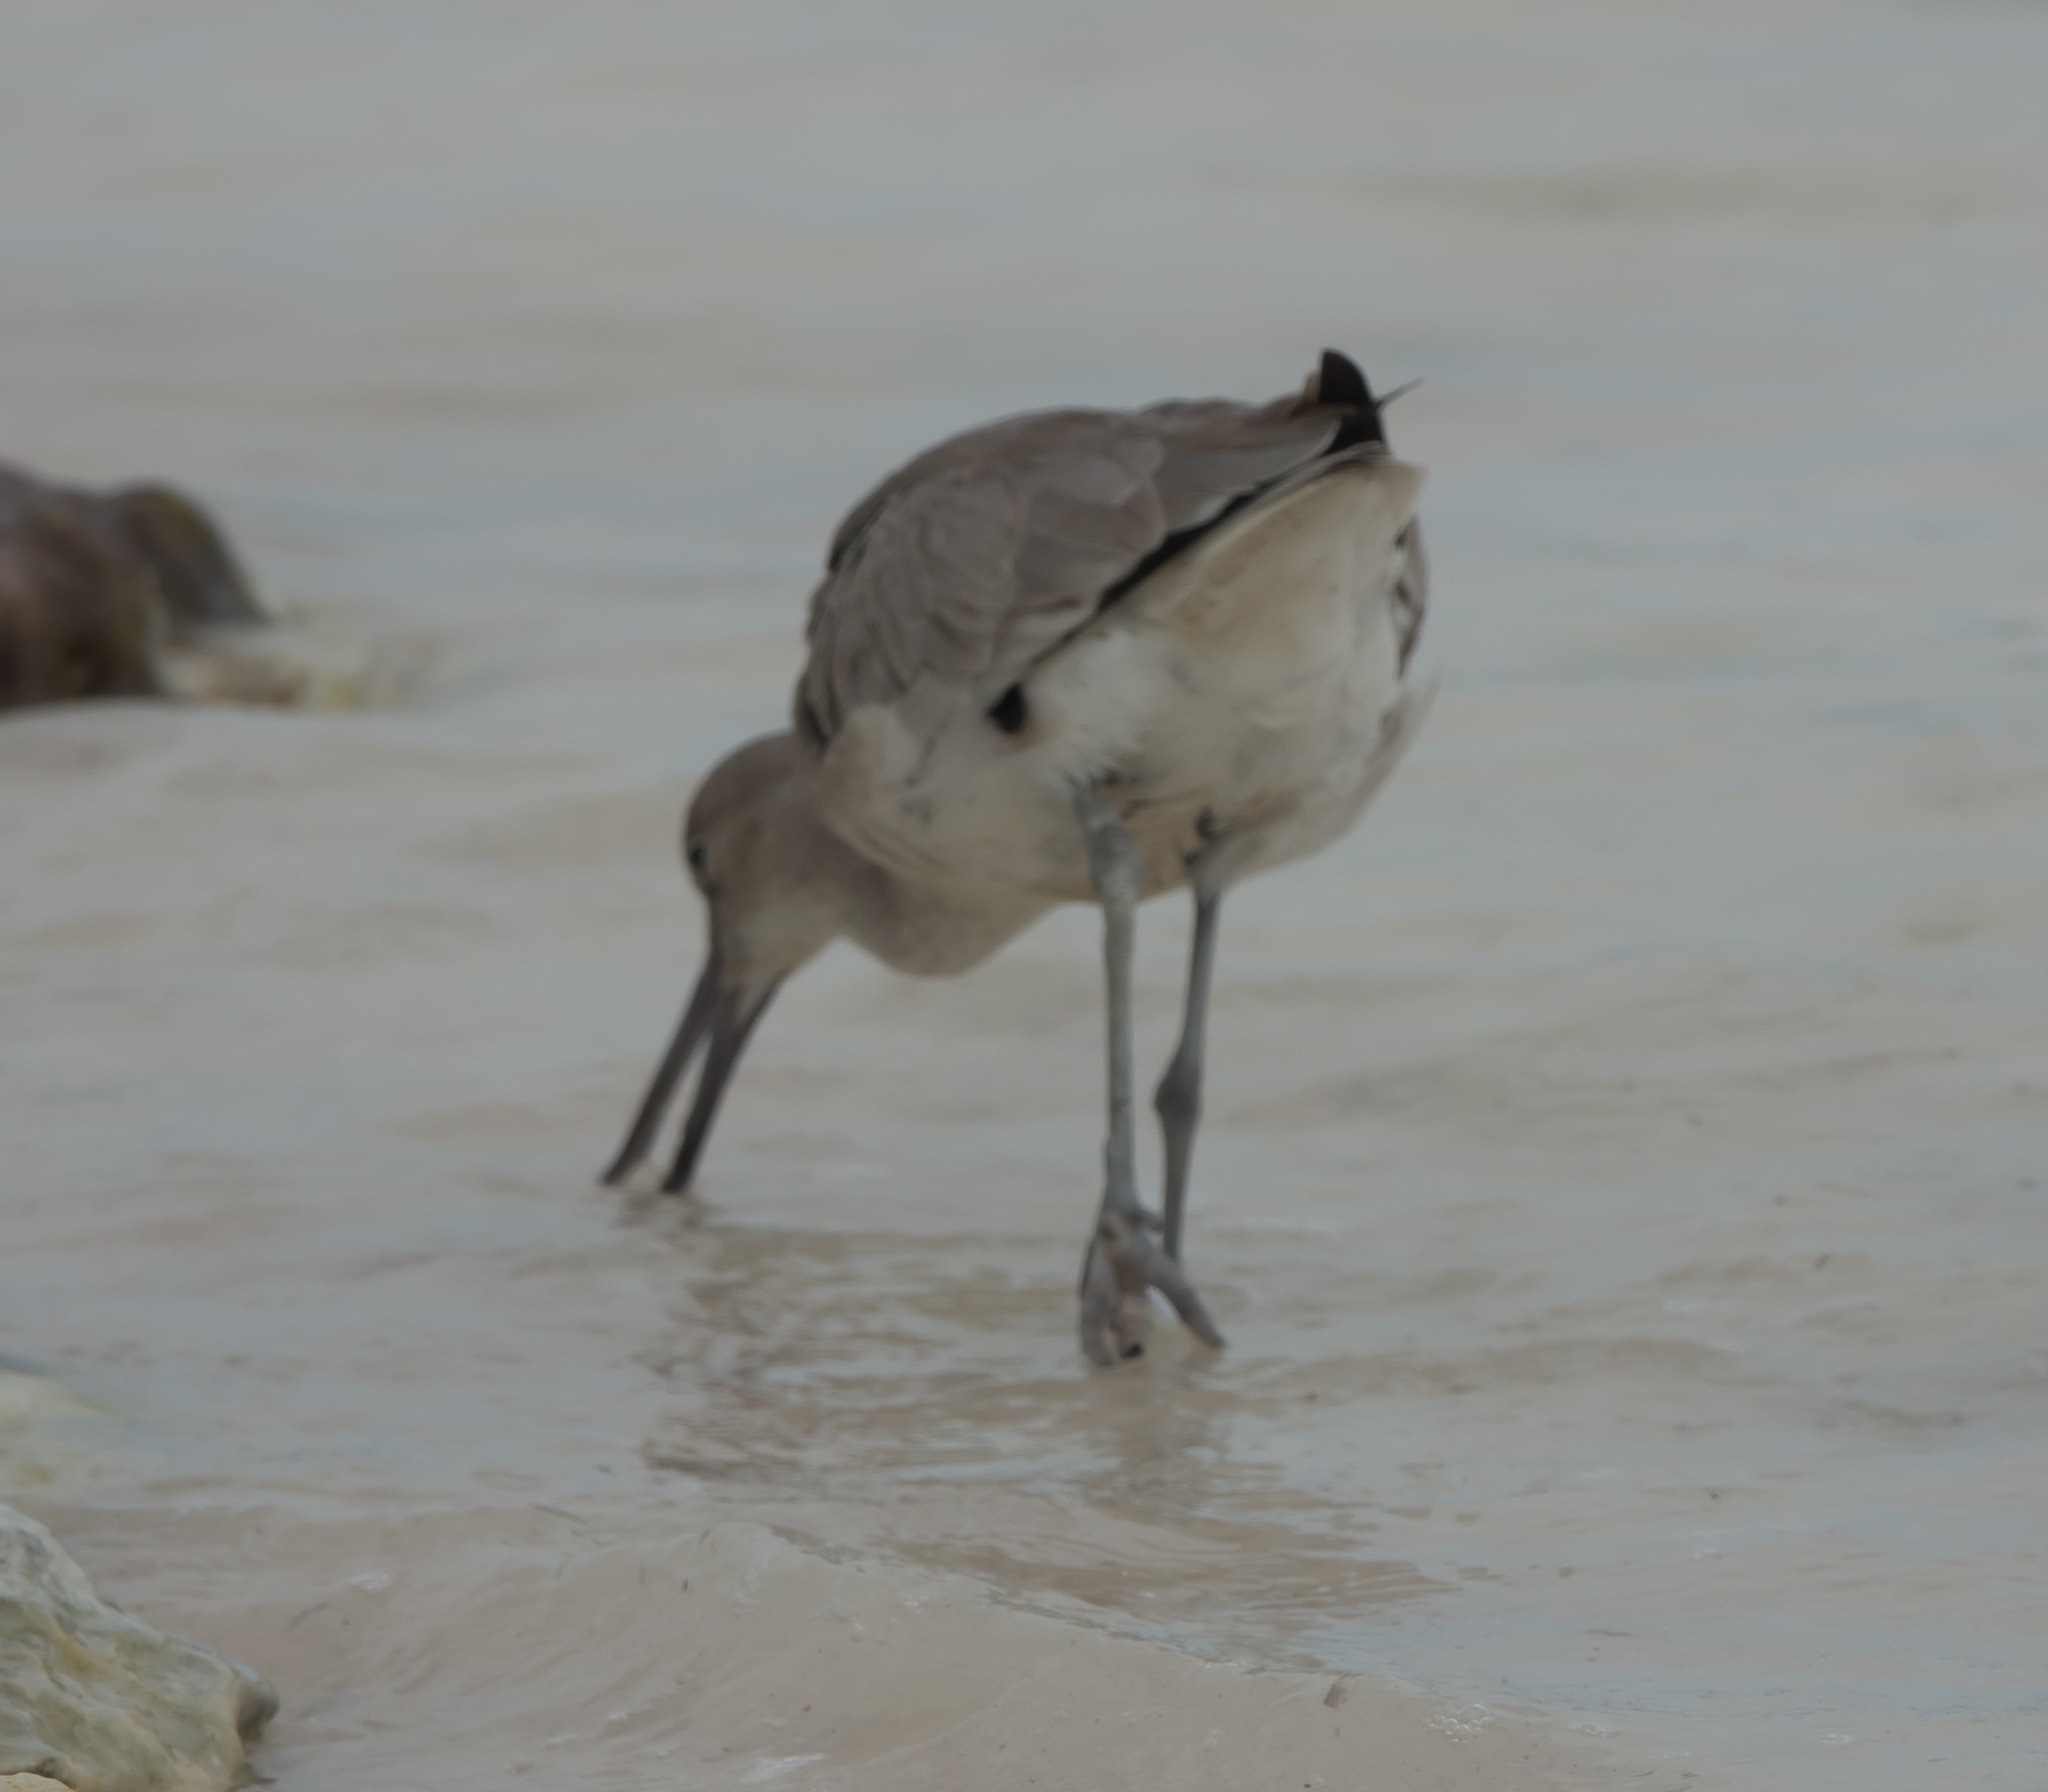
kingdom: Animalia
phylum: Chordata
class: Aves
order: Charadriiformes
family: Scolopacidae
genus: Tringa
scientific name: Tringa semipalmata
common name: Willet
